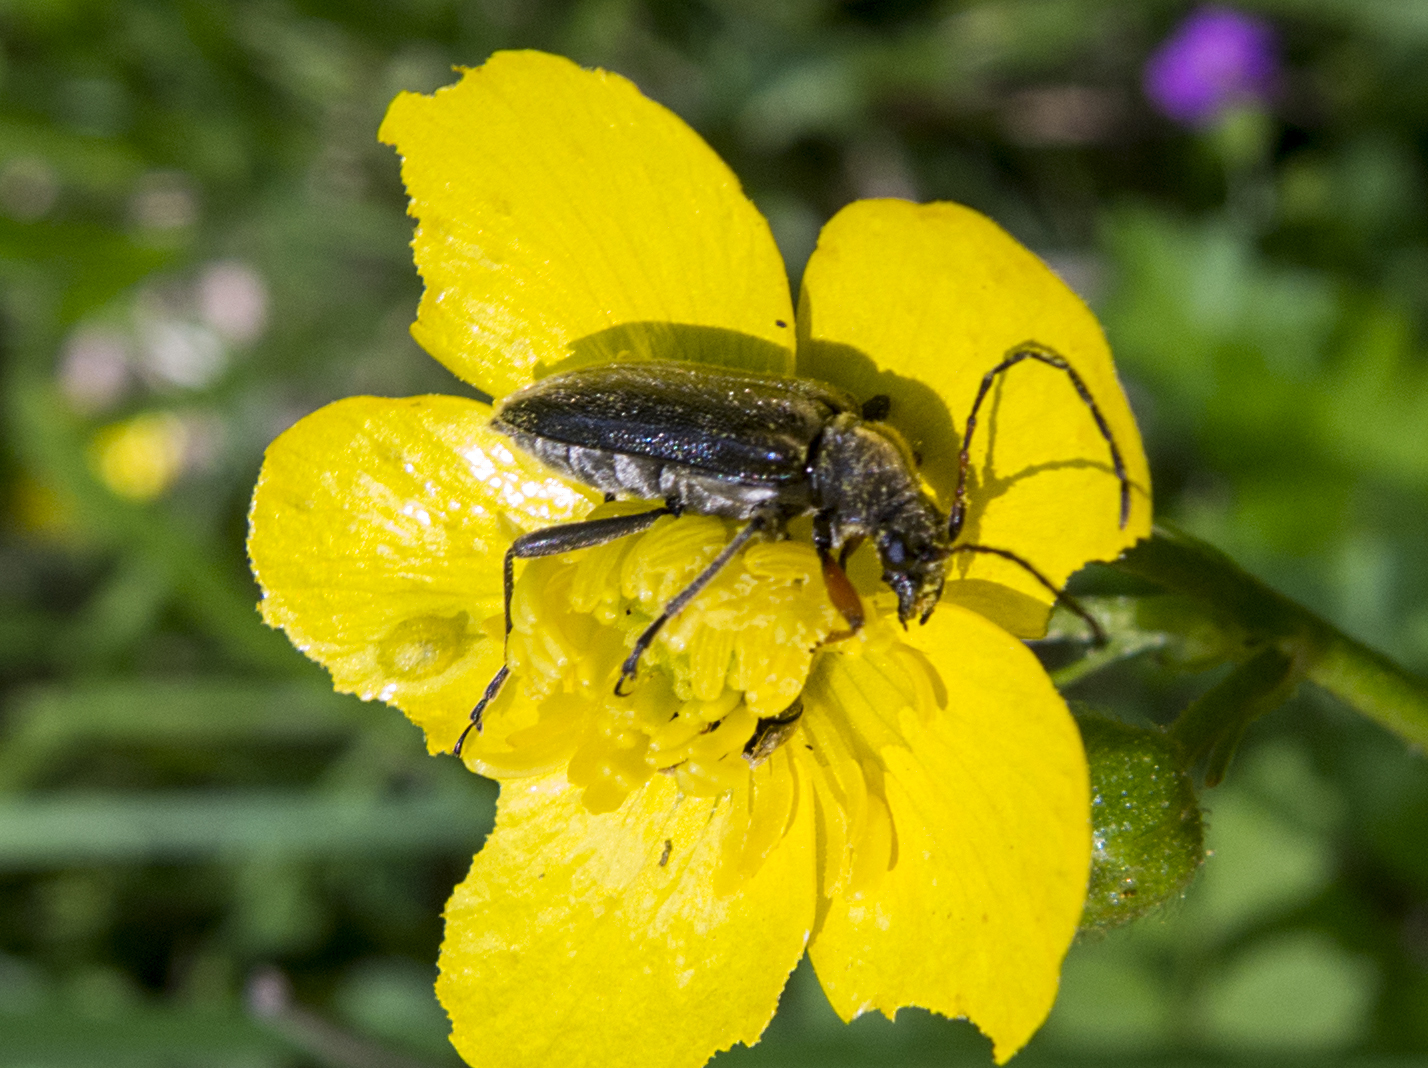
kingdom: Animalia
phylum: Arthropoda
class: Insecta
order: Coleoptera
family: Cerambycidae
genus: Cortodera
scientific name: Cortodera flavimana
